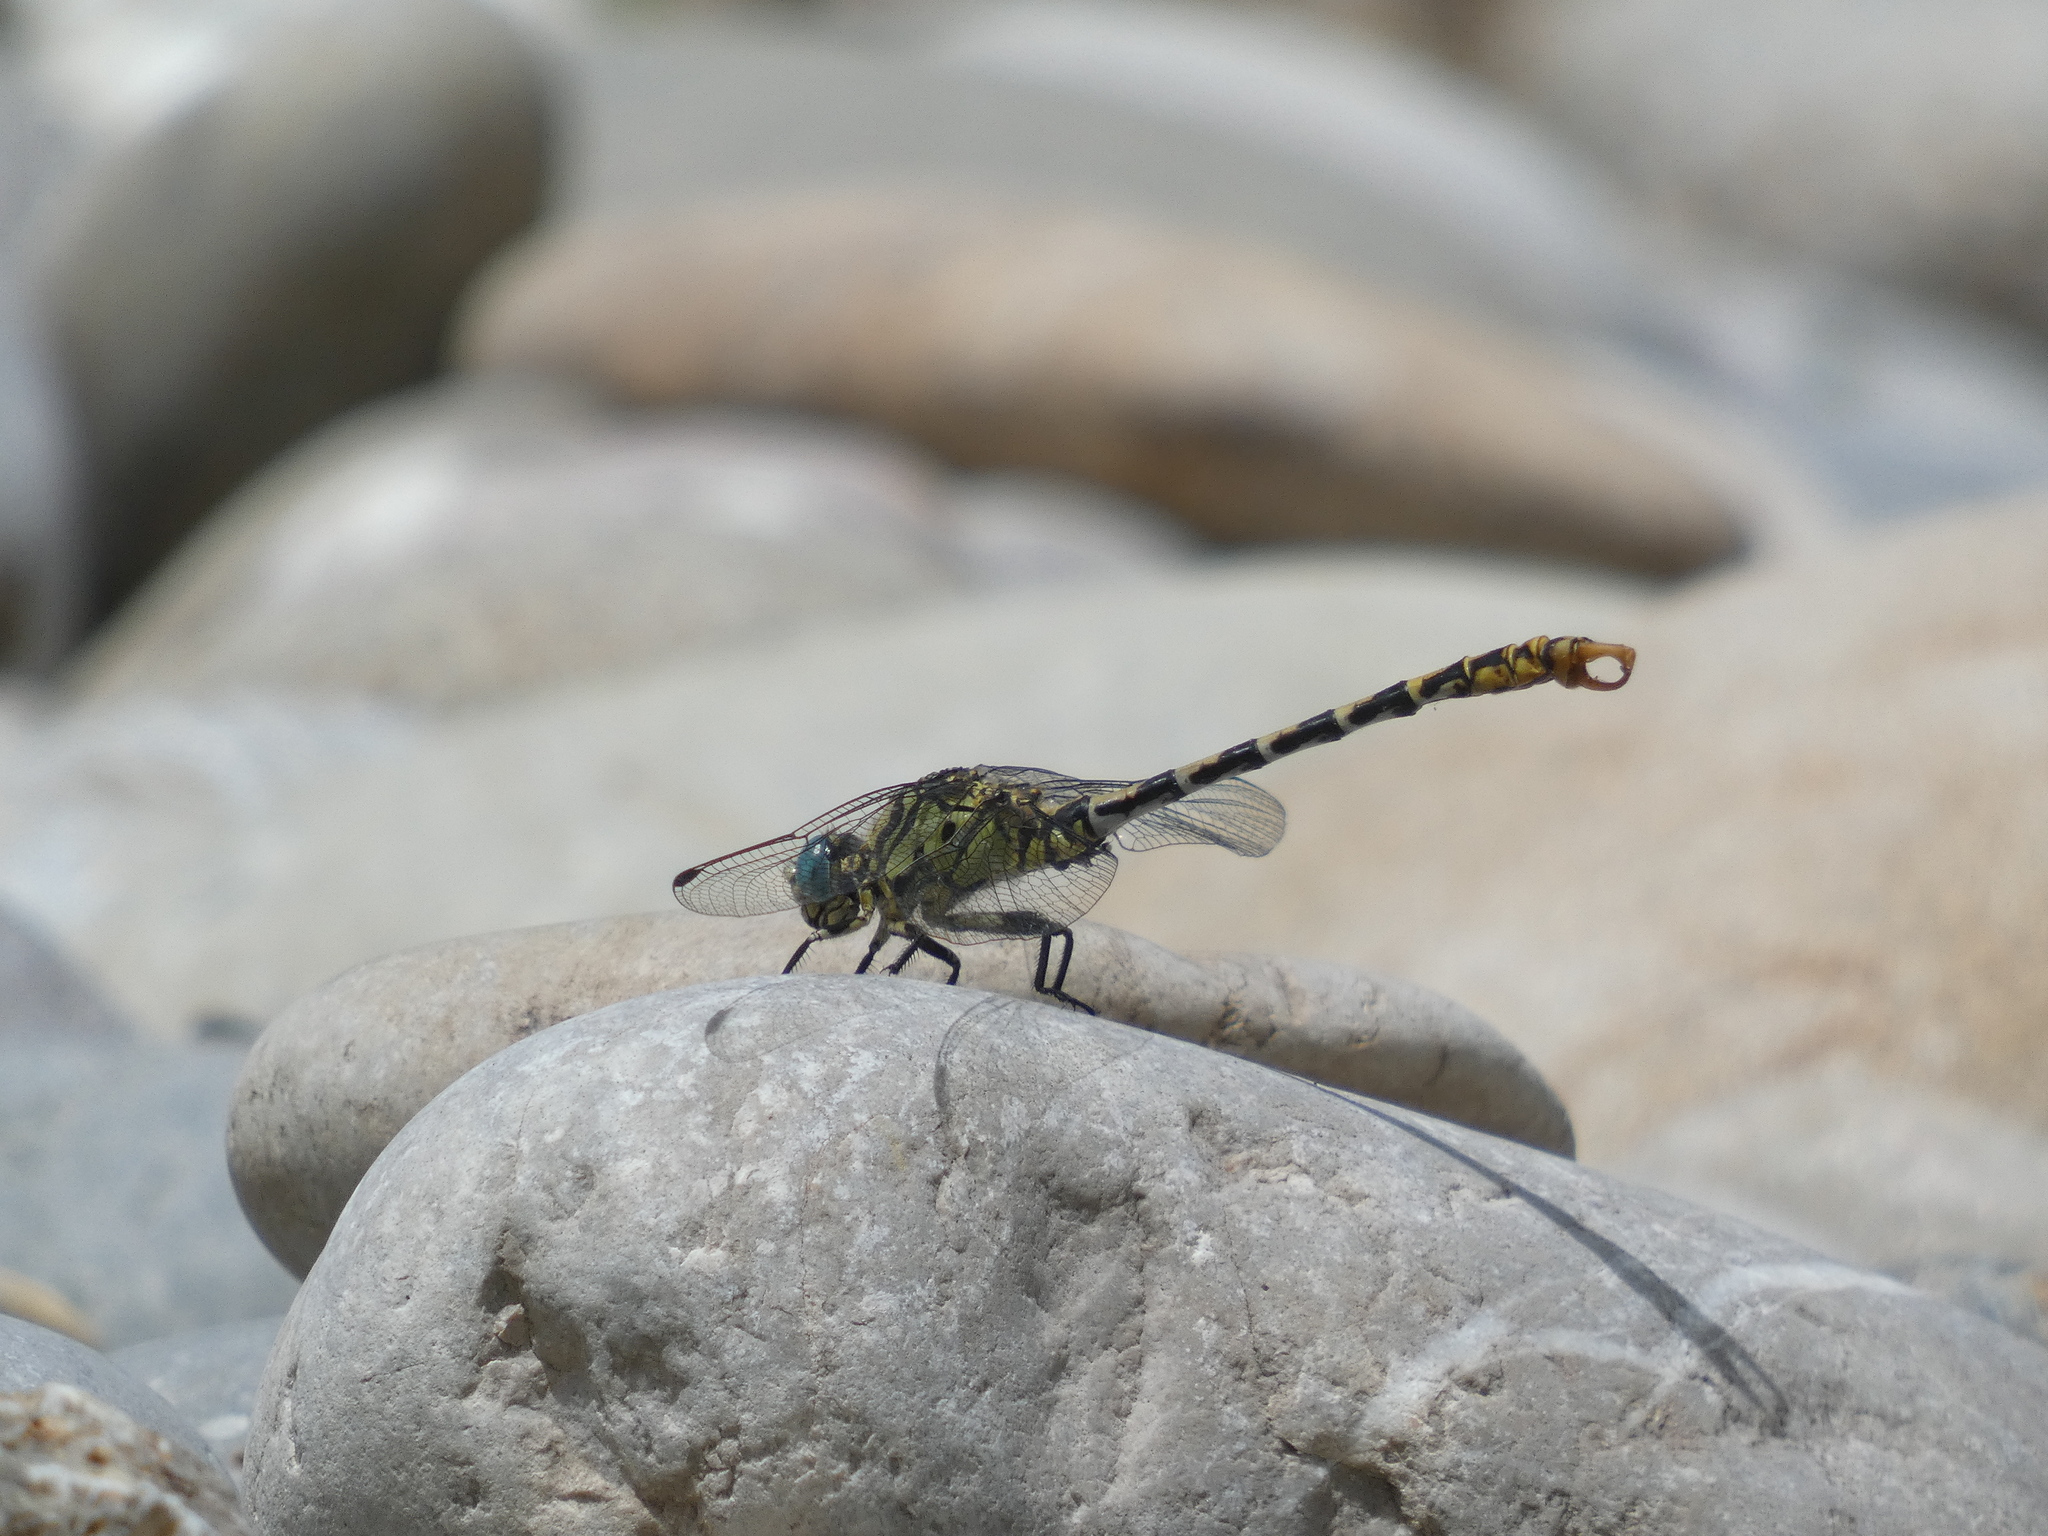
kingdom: Animalia
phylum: Arthropoda
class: Insecta
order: Odonata
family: Gomphidae
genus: Onychogomphus
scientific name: Onychogomphus forcipatus
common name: Small pincertail
